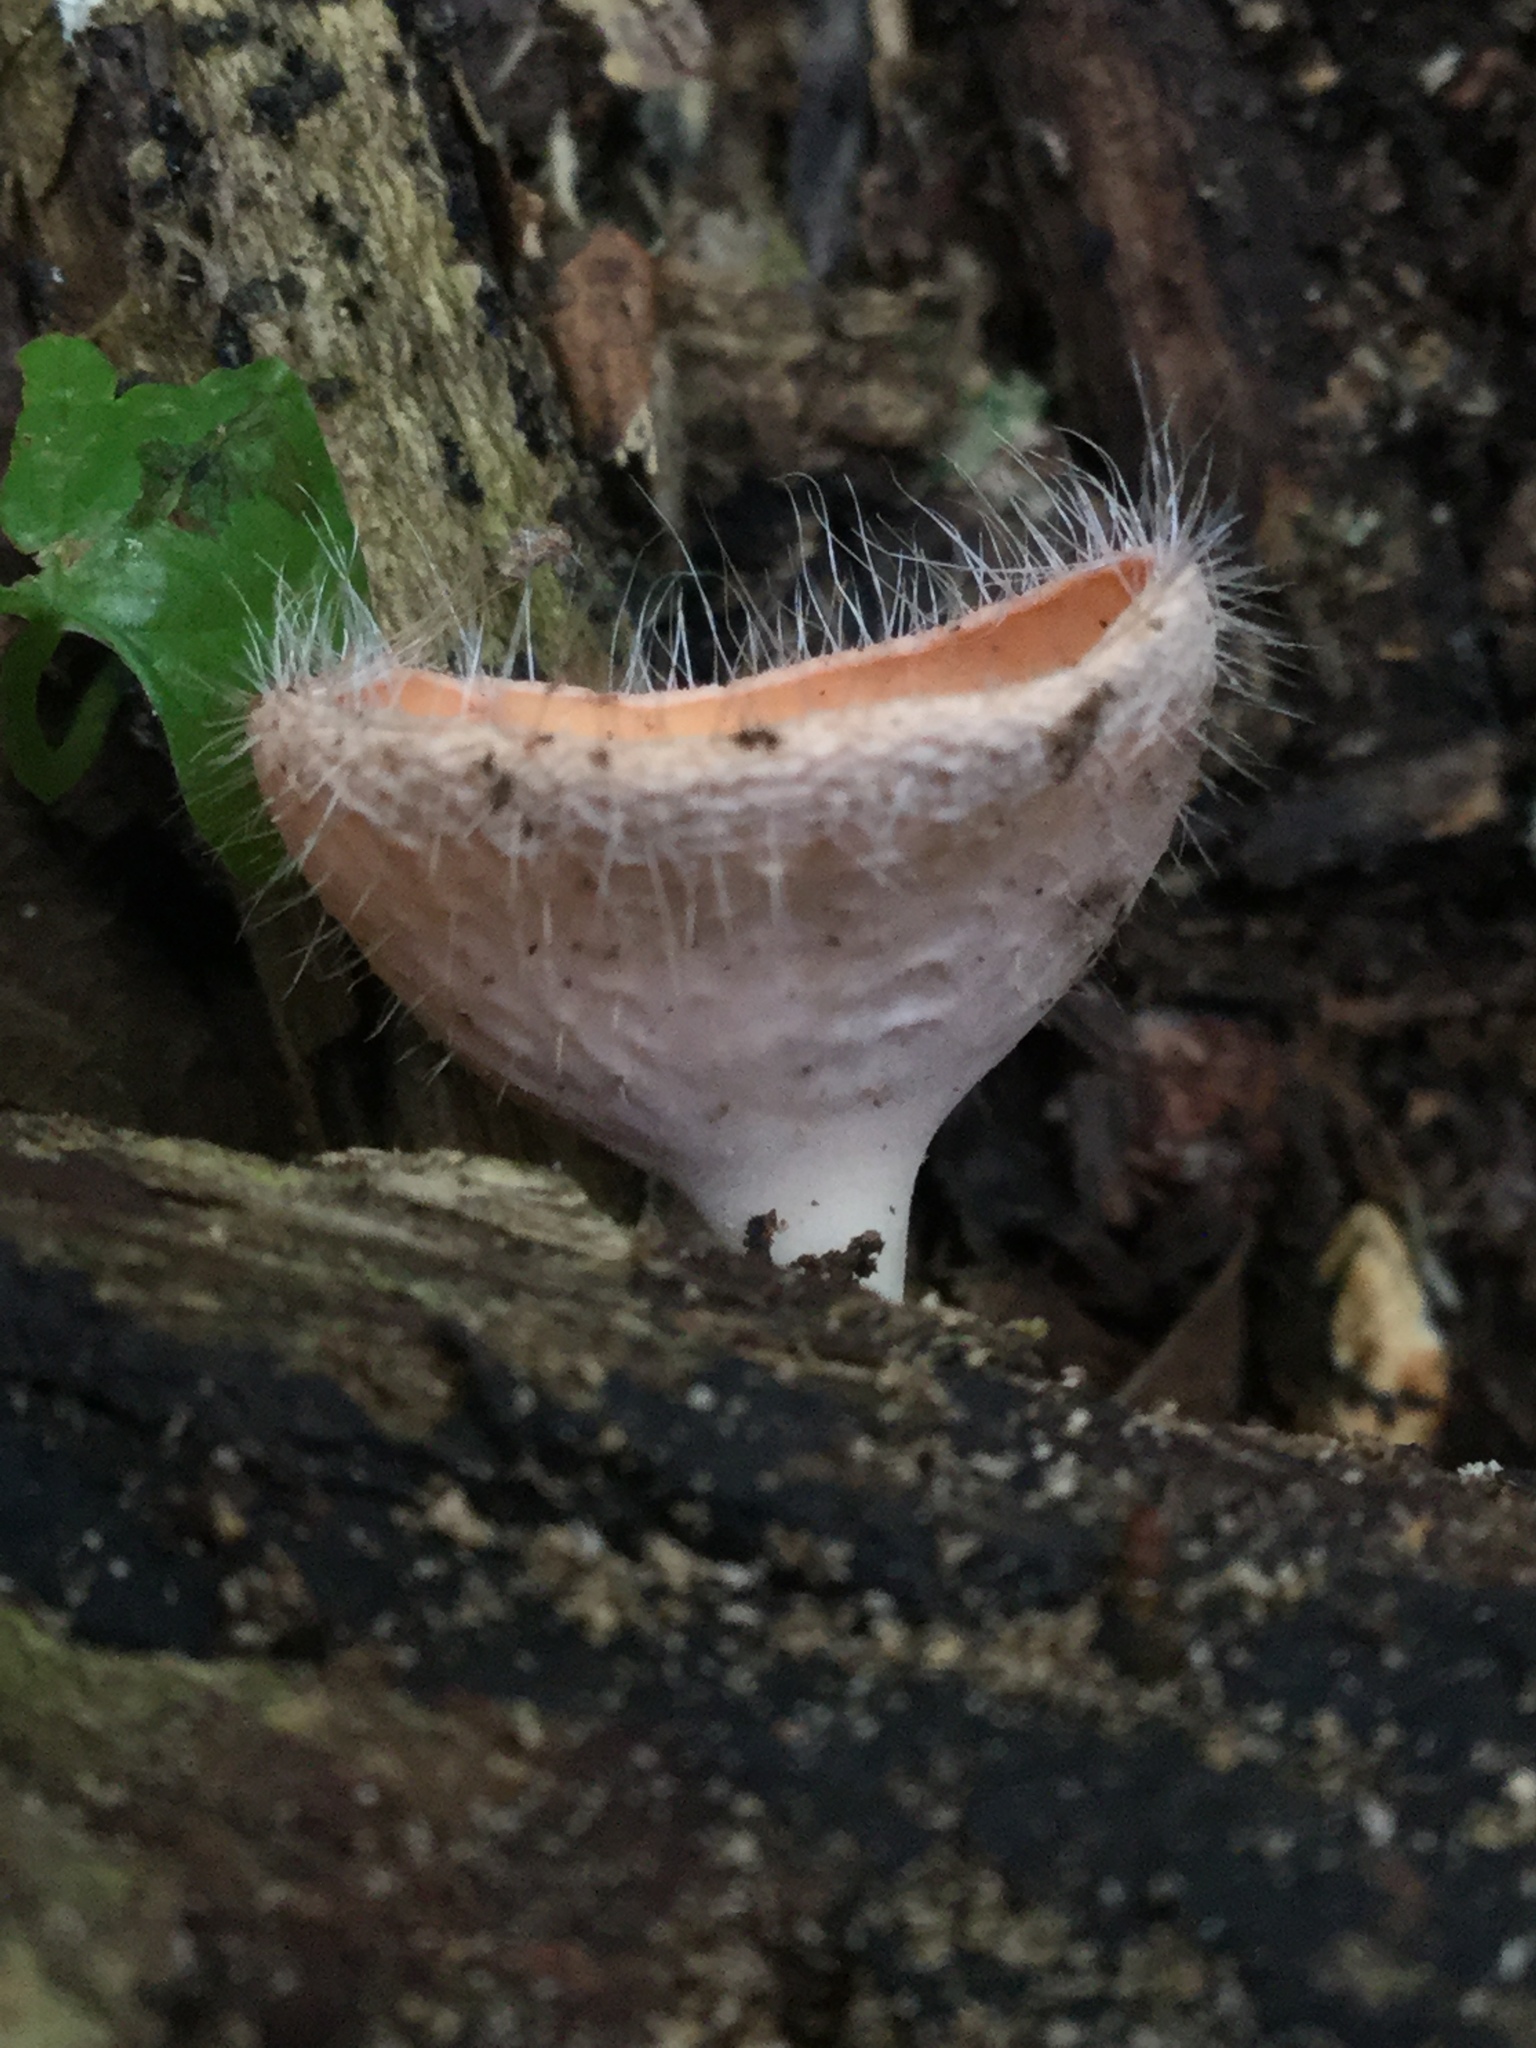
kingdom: Fungi
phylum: Ascomycota
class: Pezizomycetes
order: Pezizales
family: Sarcoscyphaceae
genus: Cookeina
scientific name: Cookeina tricholoma
